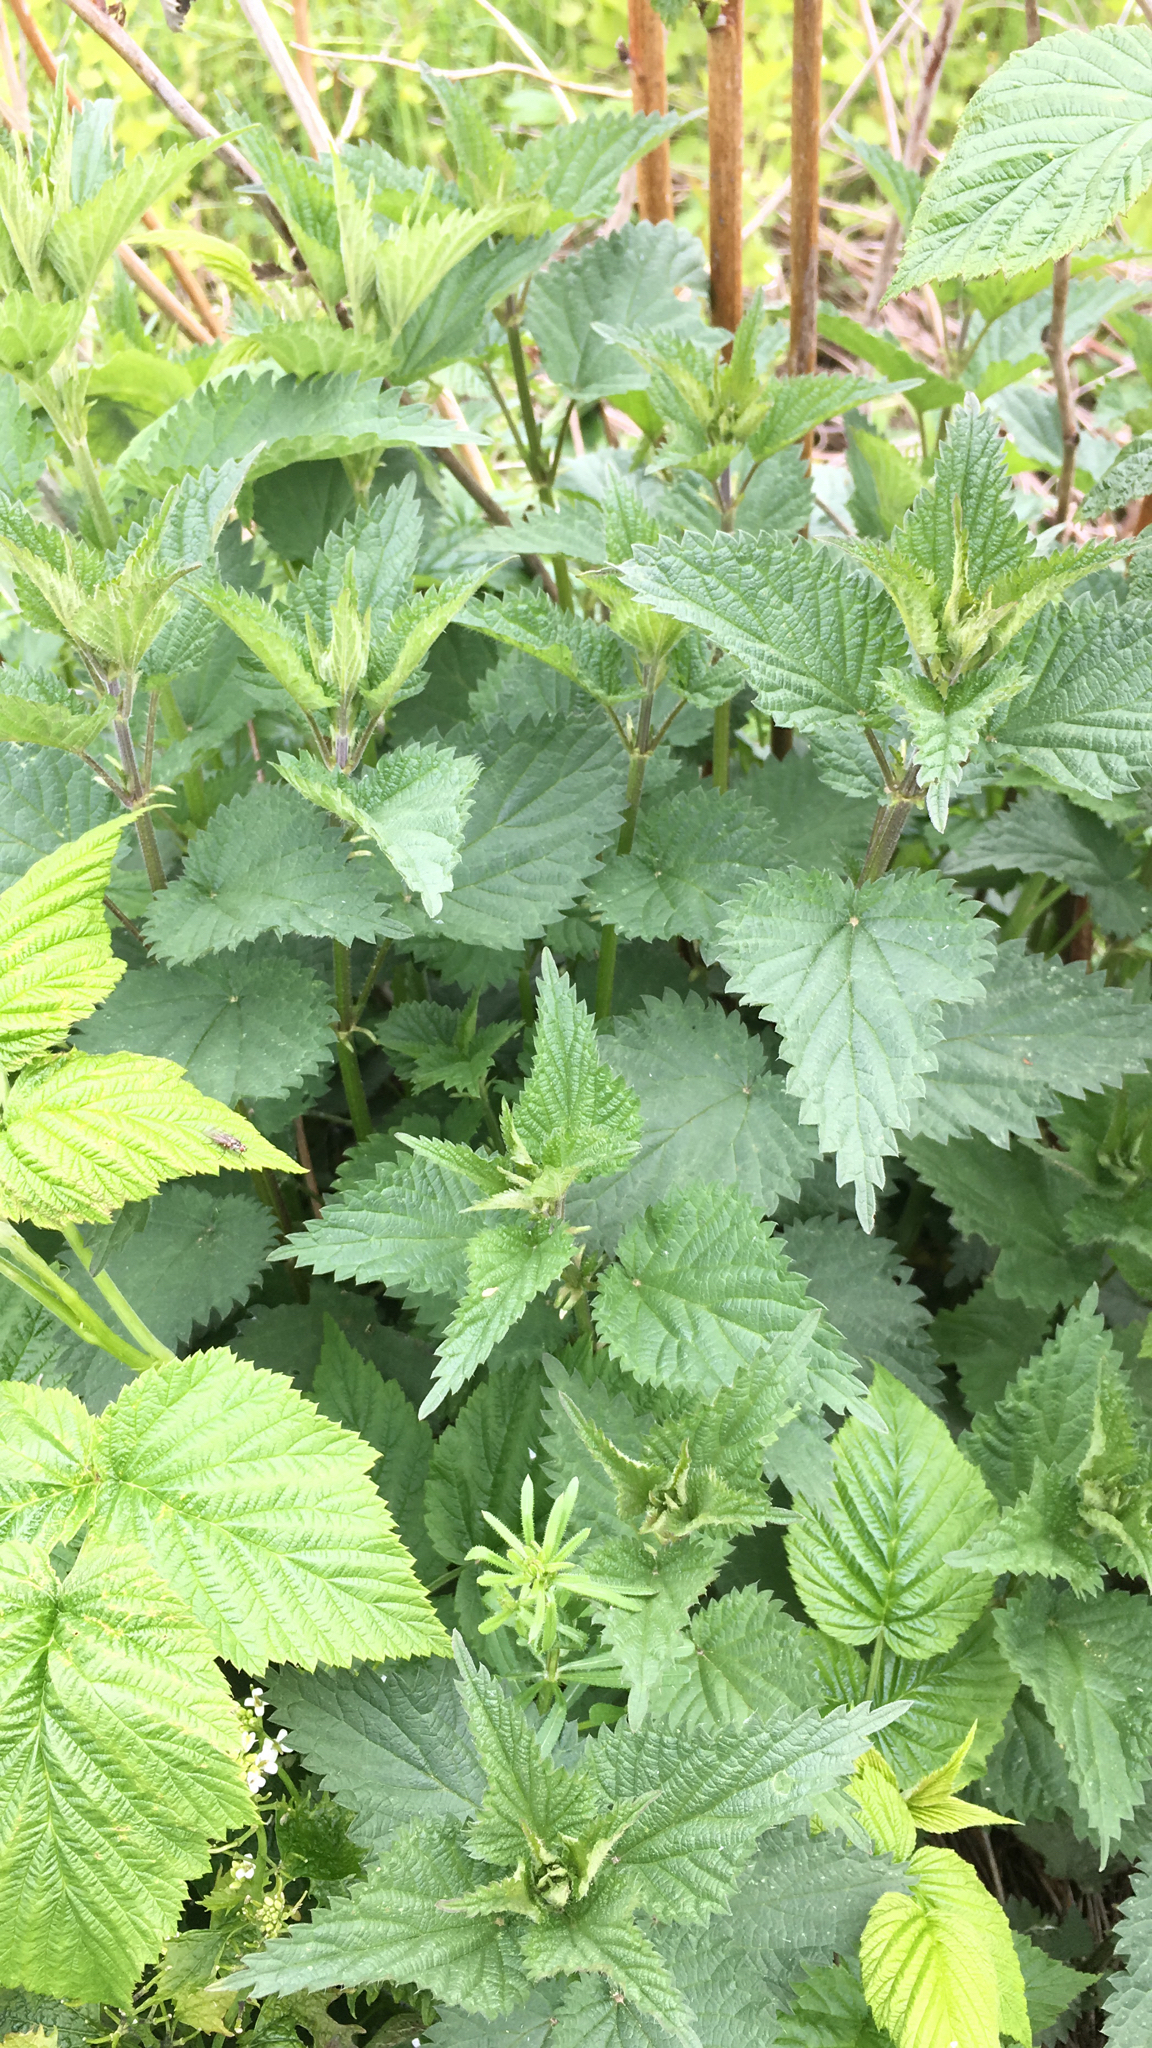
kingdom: Plantae
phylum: Tracheophyta
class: Magnoliopsida
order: Rosales
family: Urticaceae
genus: Urtica
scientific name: Urtica dioica
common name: Common nettle
